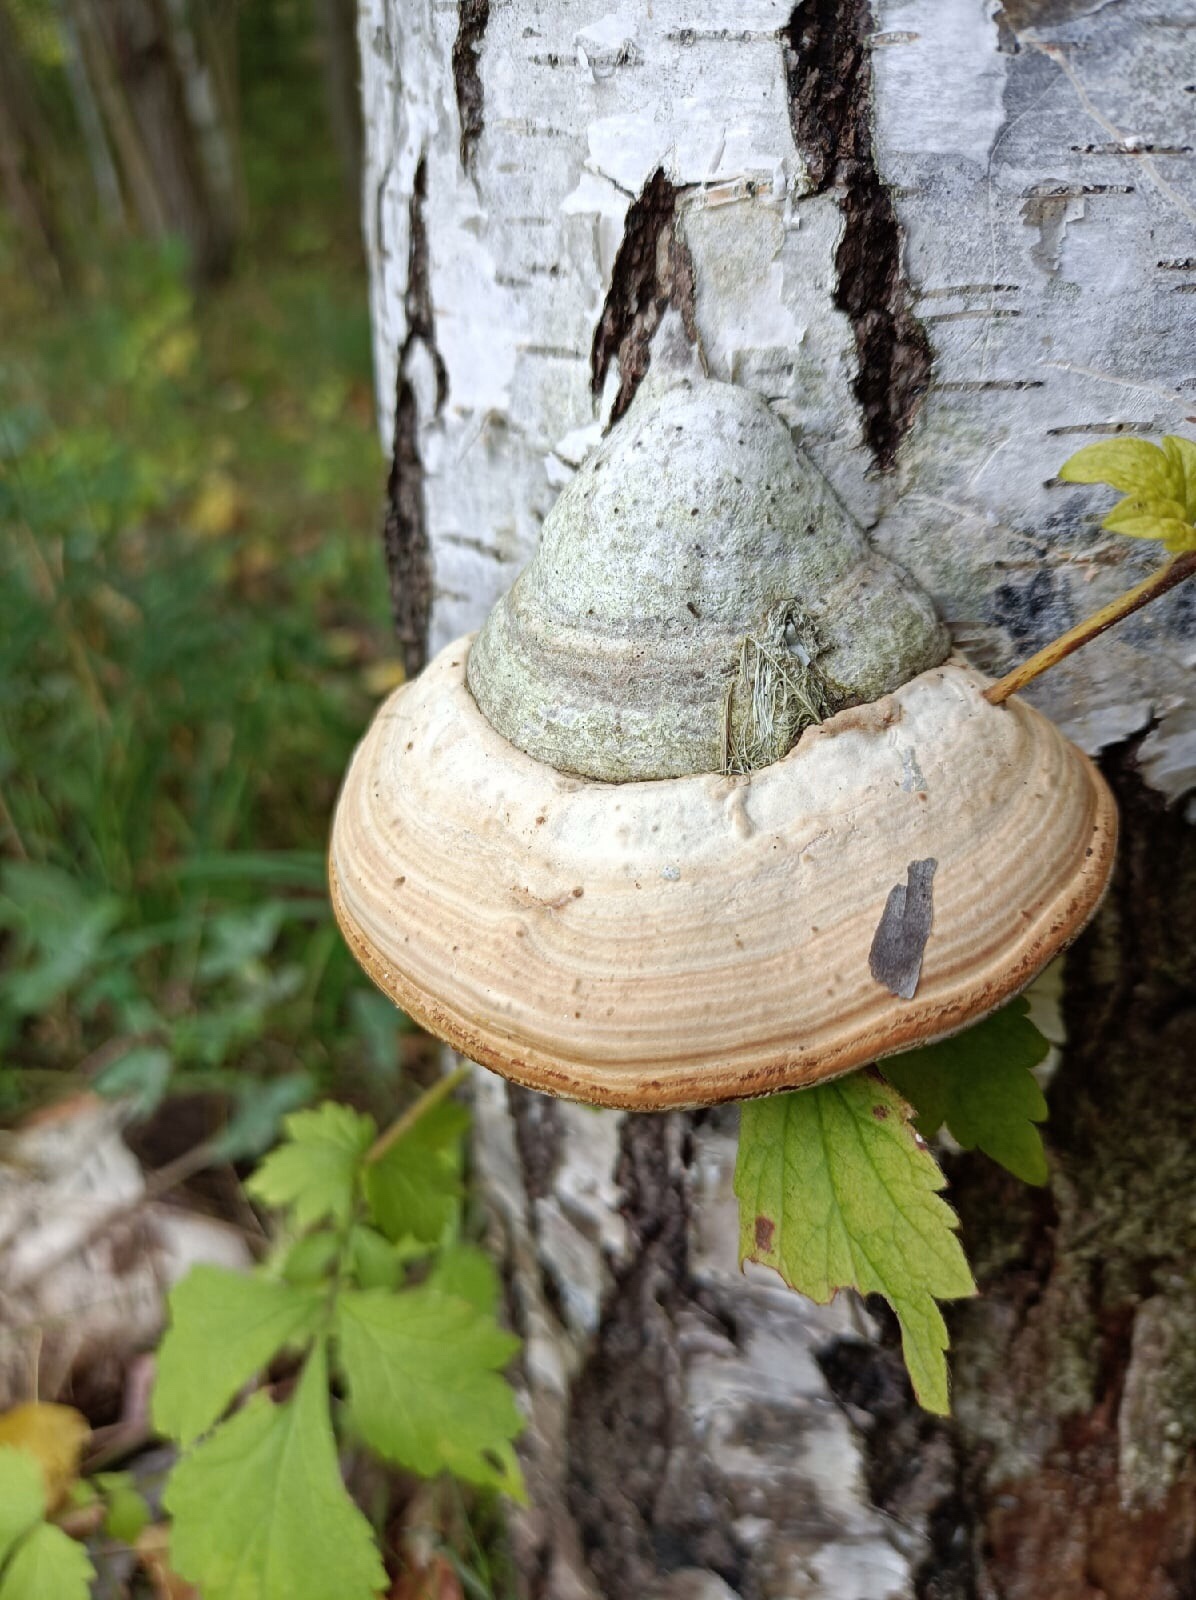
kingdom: Fungi
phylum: Basidiomycota
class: Agaricomycetes
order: Polyporales
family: Polyporaceae
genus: Fomes
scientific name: Fomes fomentarius
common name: Hoof fungus
